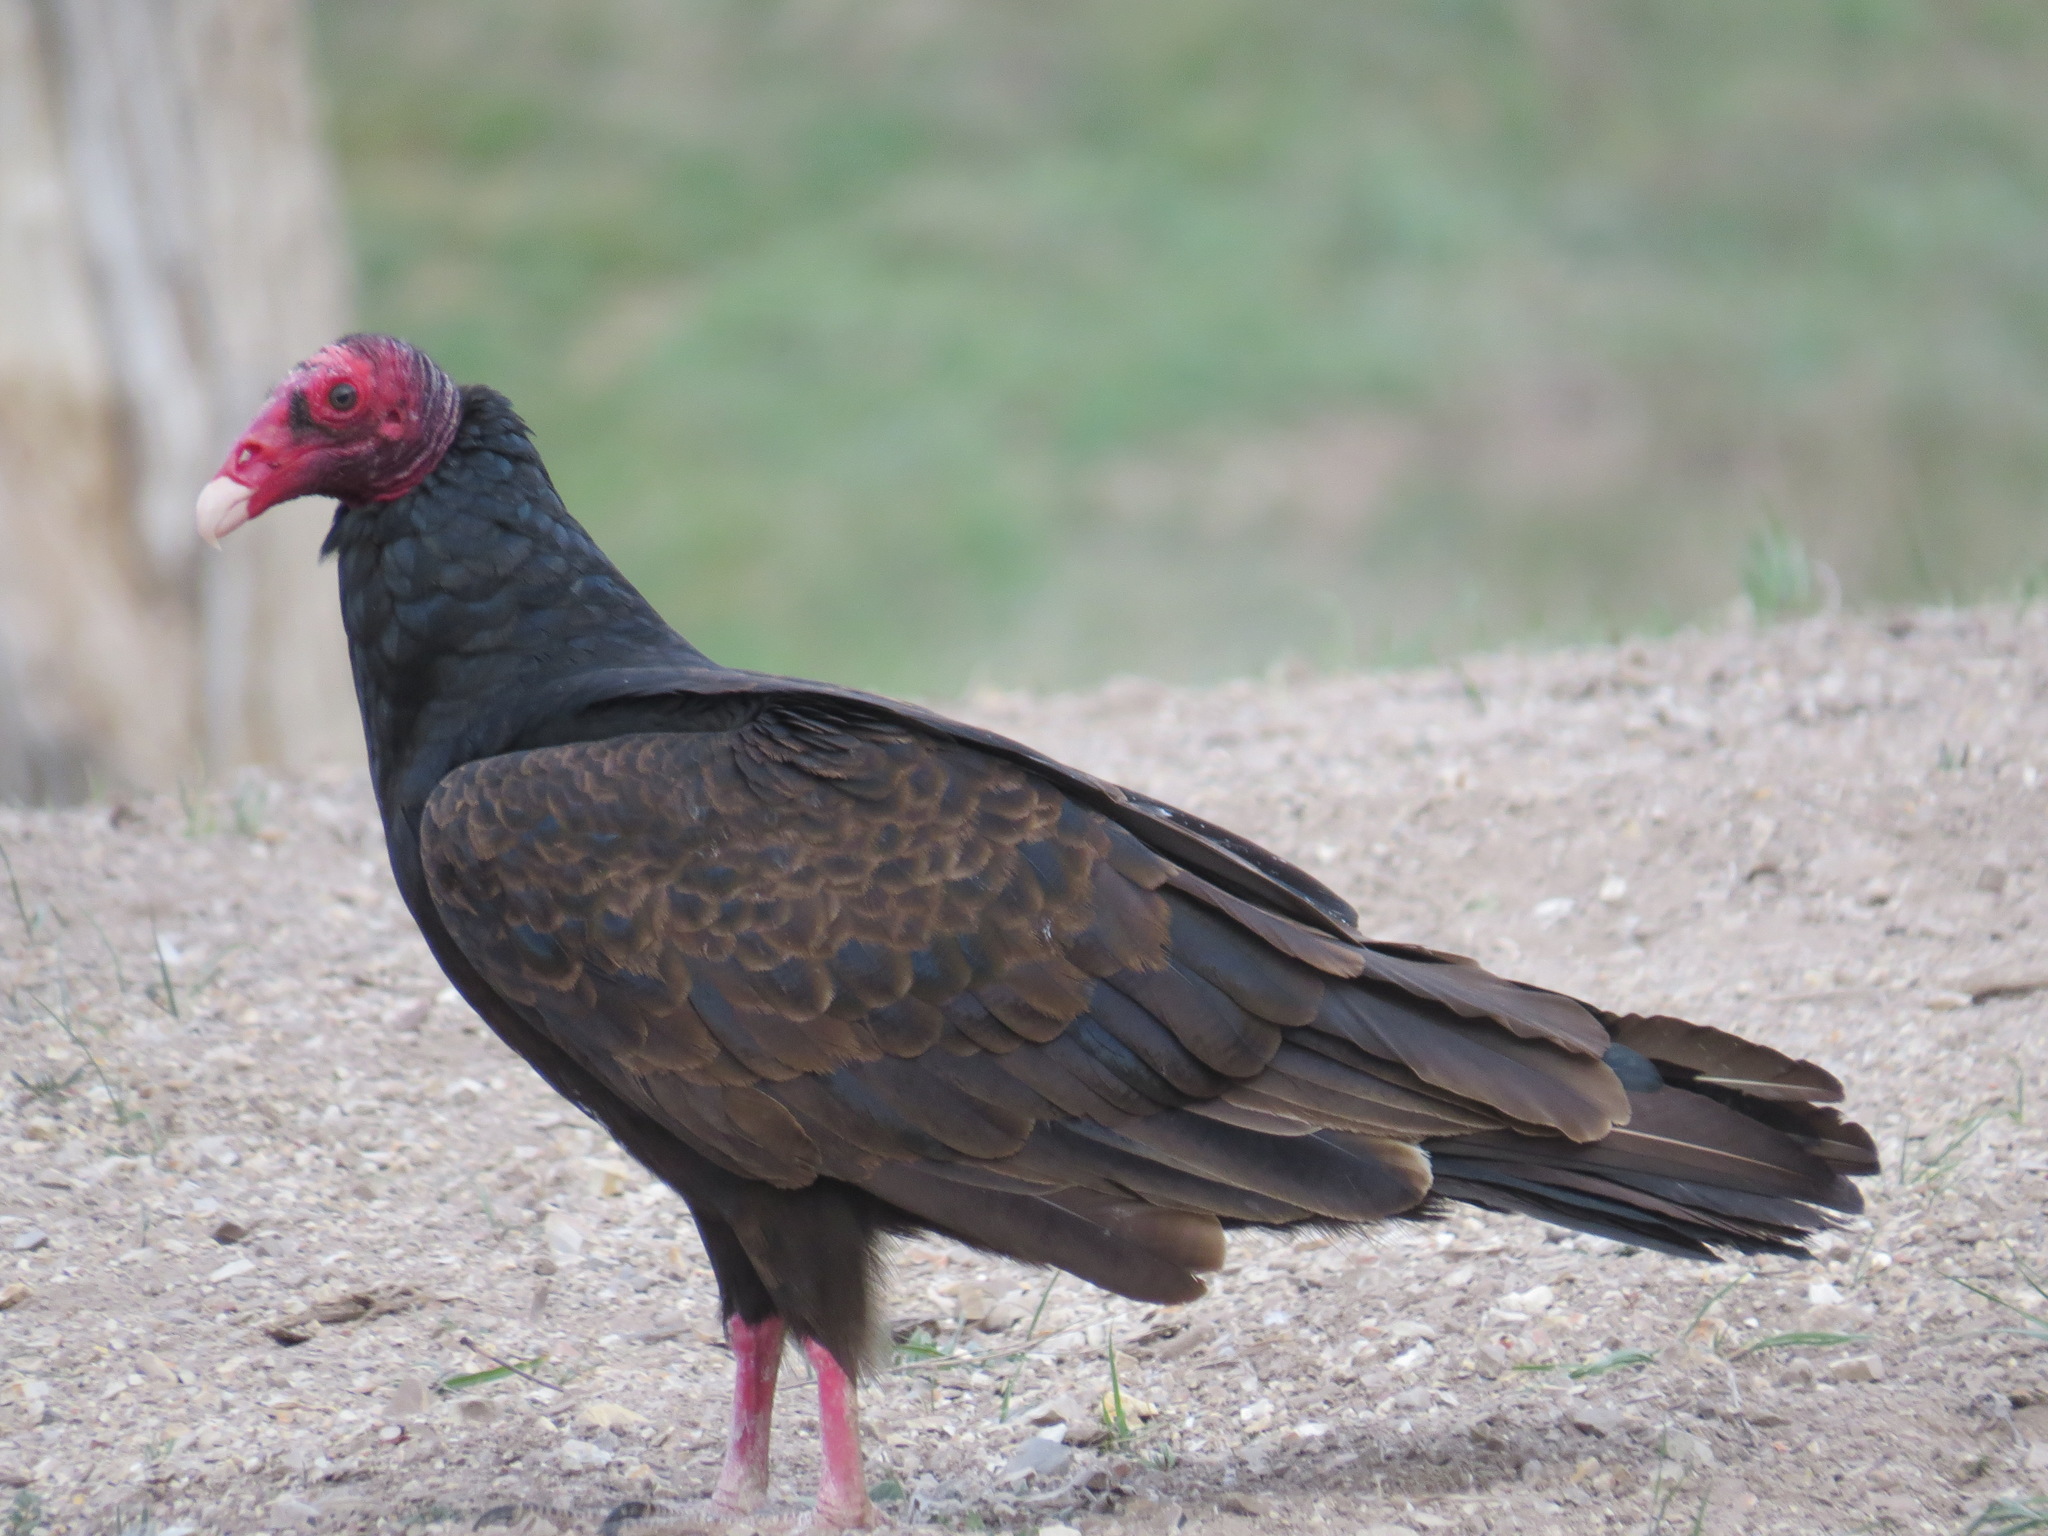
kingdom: Animalia
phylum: Chordata
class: Aves
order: Accipitriformes
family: Cathartidae
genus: Cathartes
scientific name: Cathartes aura
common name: Turkey vulture
